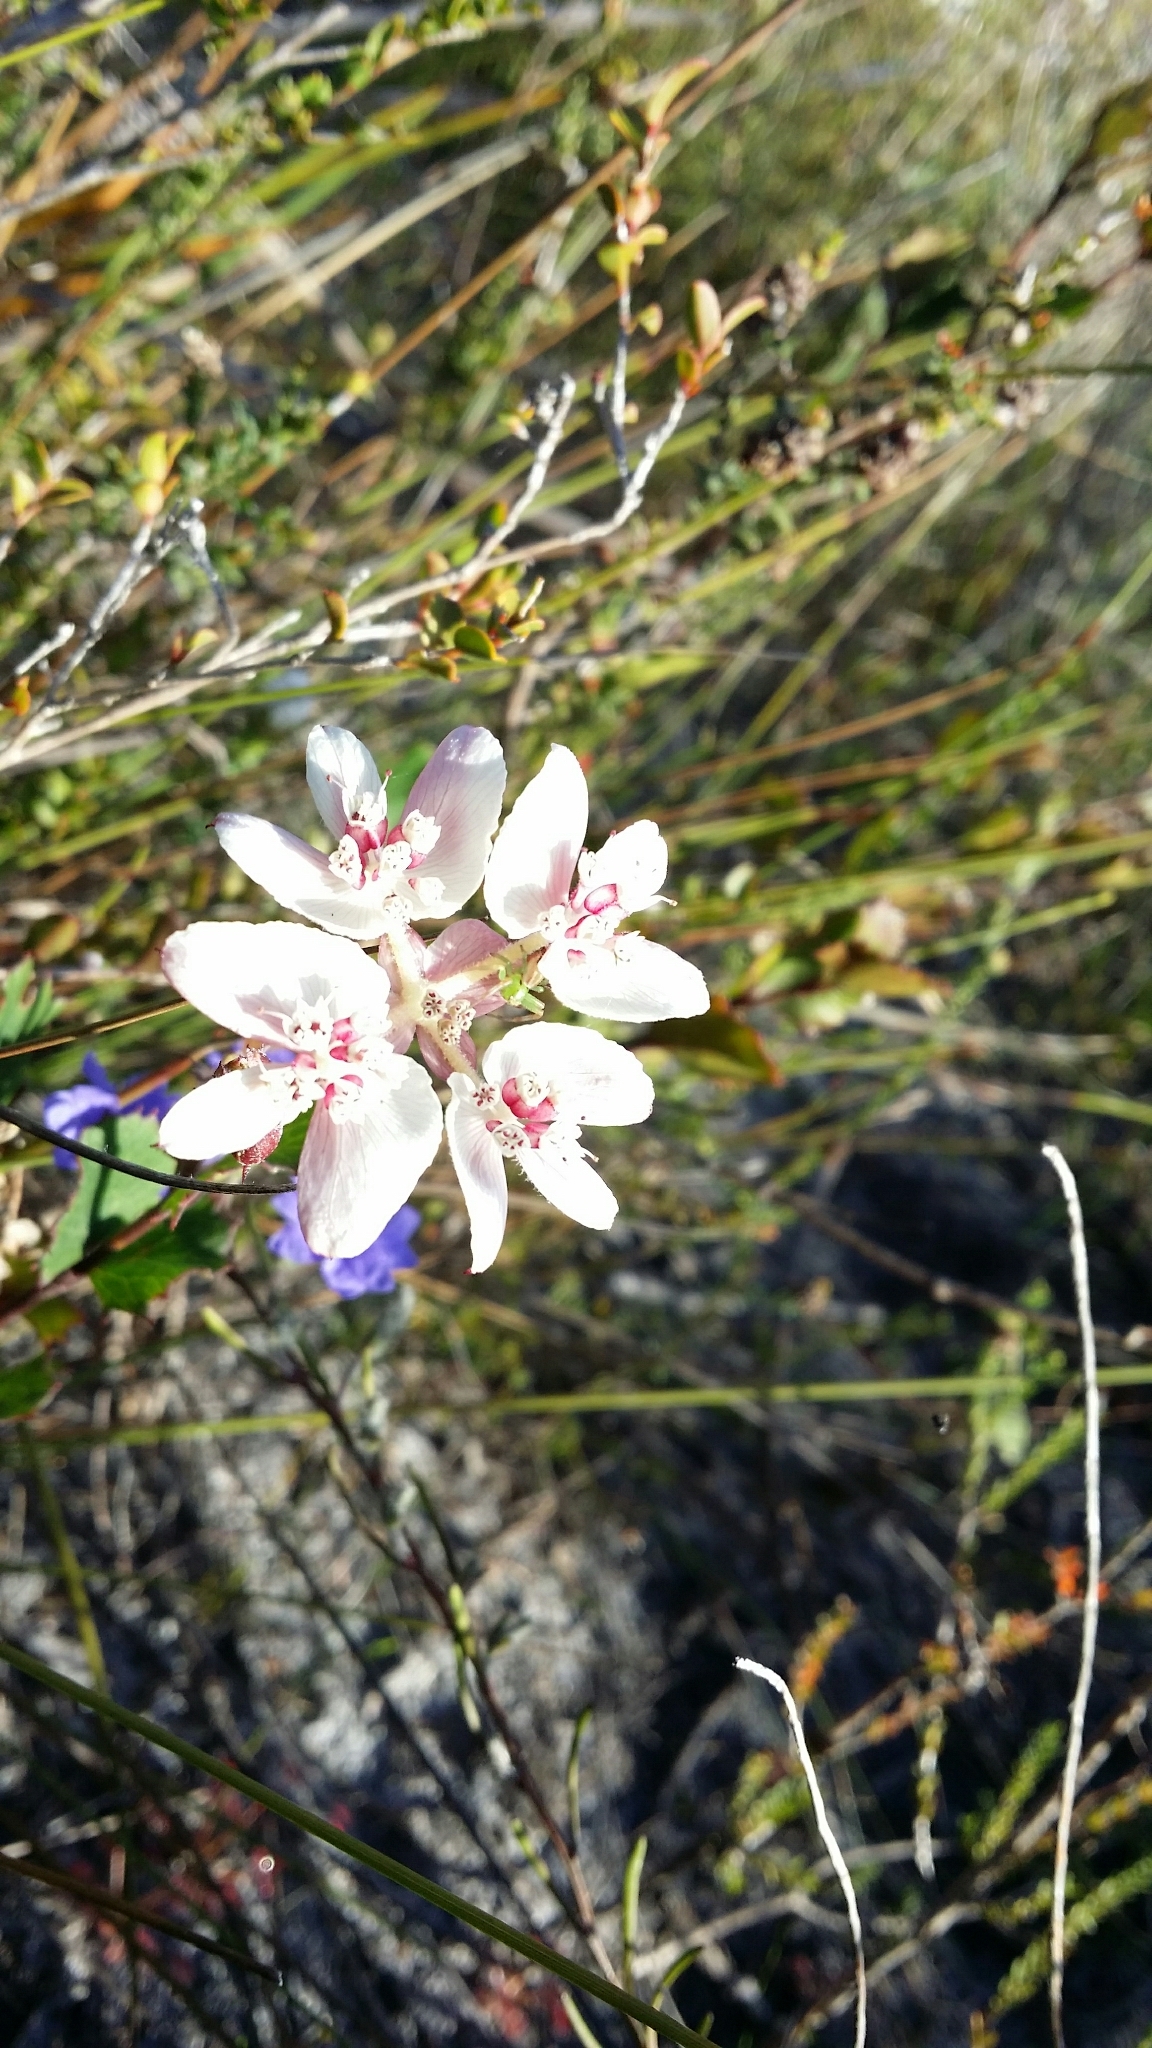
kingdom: Plantae
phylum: Tracheophyta
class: Magnoliopsida
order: Apiales
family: Apiaceae
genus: Xanthosia
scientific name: Xanthosia rotundifolia
